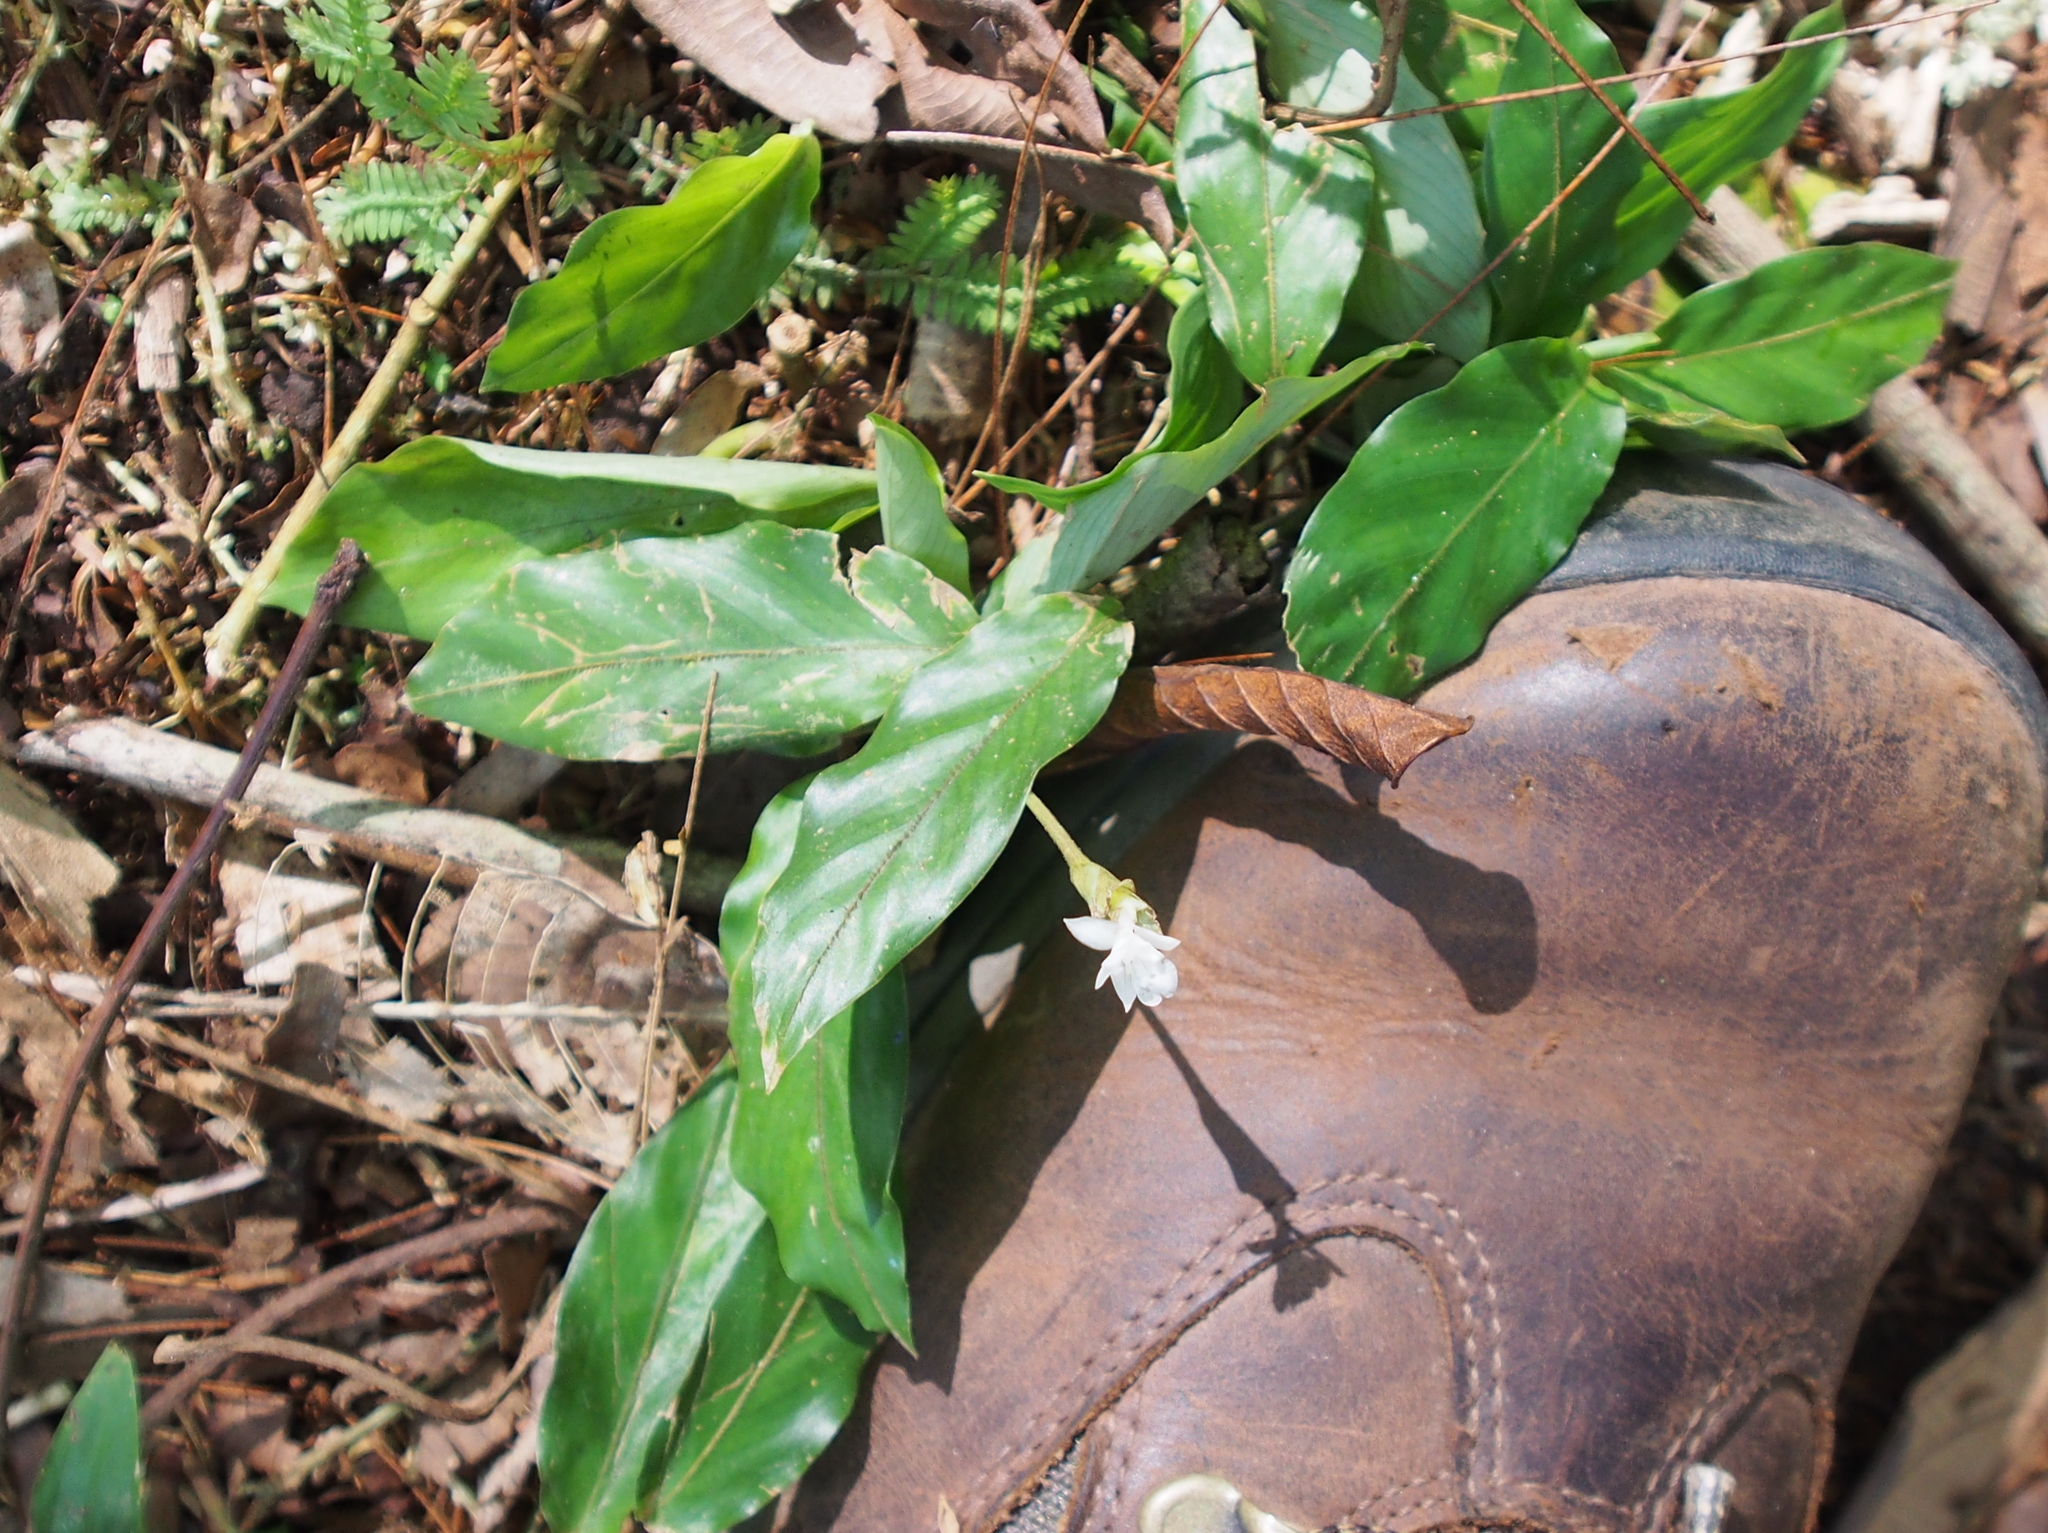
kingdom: Plantae
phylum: Tracheophyta
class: Liliopsida
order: Zingiberales
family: Marantaceae
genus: Goeppertia
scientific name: Goeppertia micans
